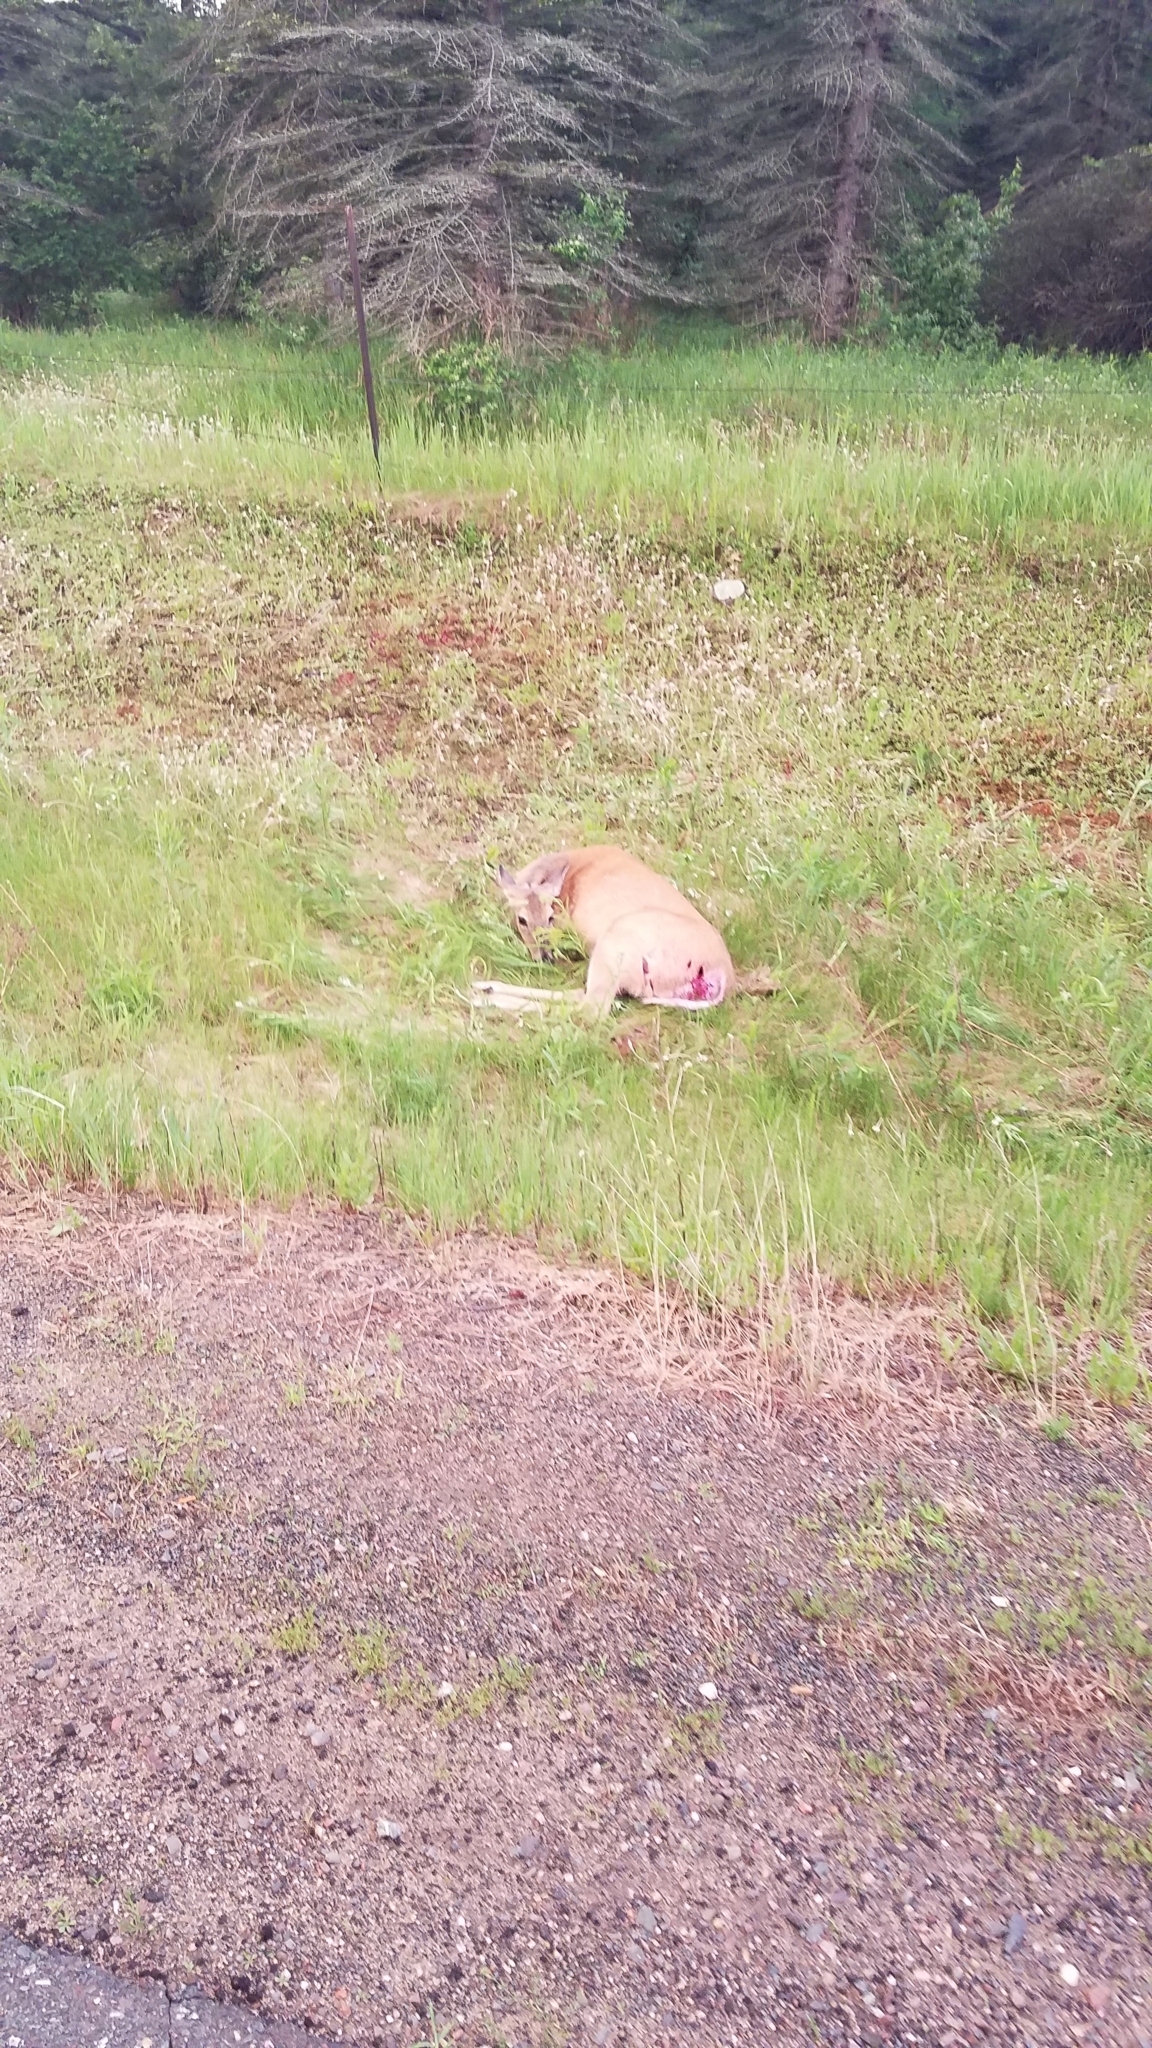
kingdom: Animalia
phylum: Chordata
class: Mammalia
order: Artiodactyla
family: Cervidae
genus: Odocoileus
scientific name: Odocoileus virginianus
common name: White-tailed deer
